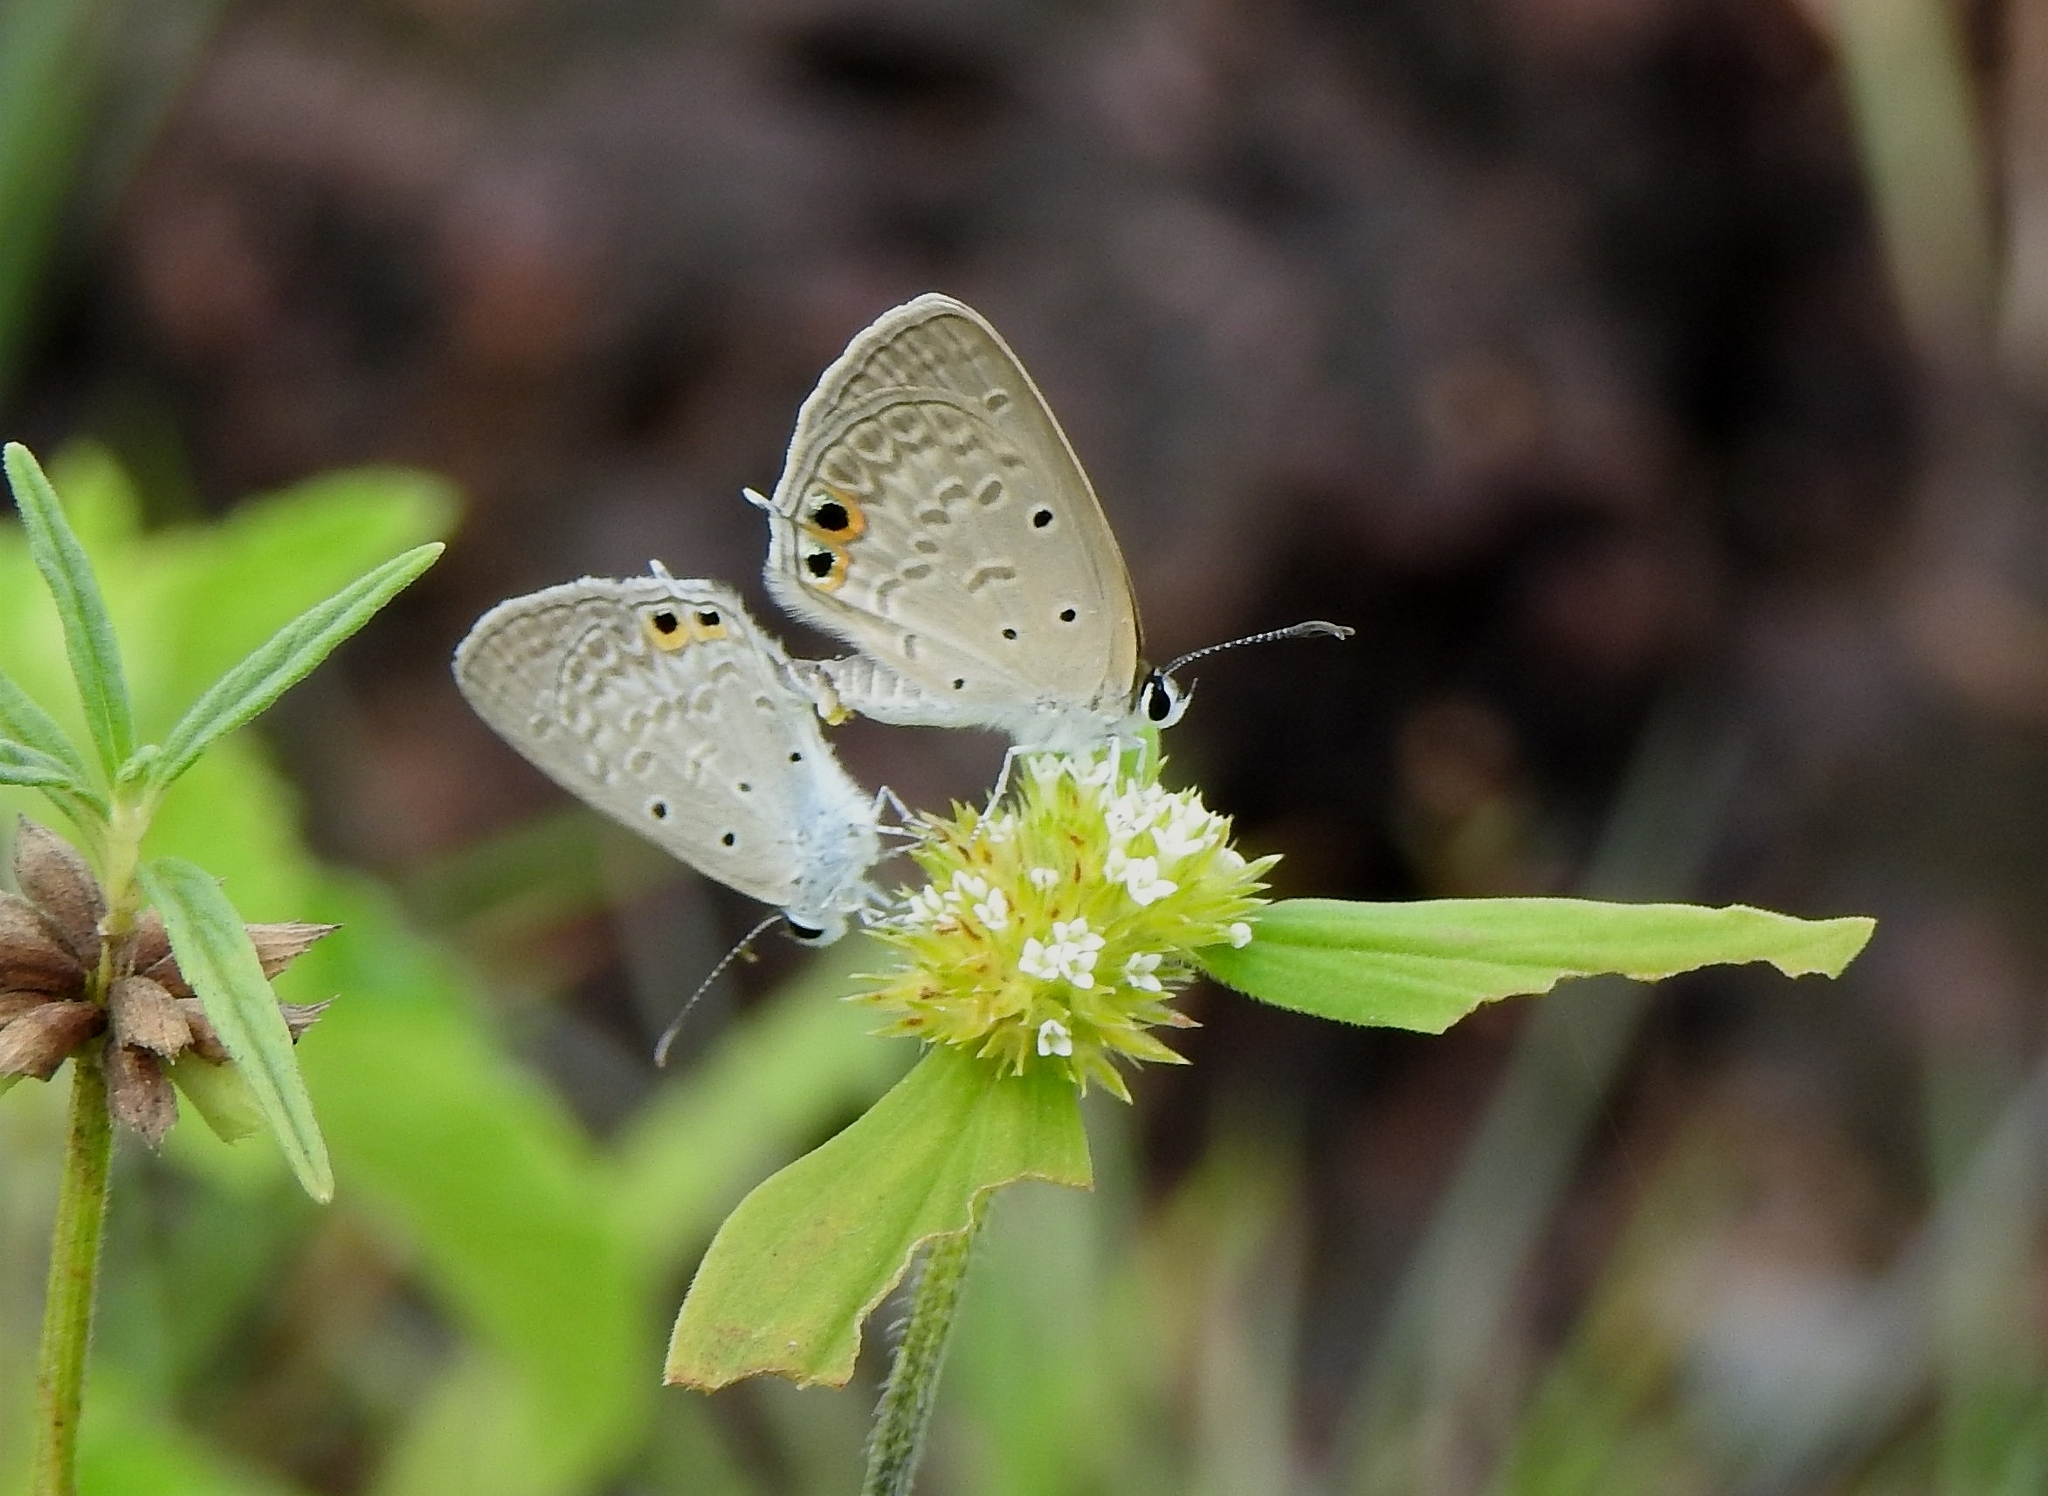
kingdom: Animalia
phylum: Arthropoda
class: Insecta
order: Lepidoptera
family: Lycaenidae
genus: Euchrysops
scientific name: Euchrysops cnejus
